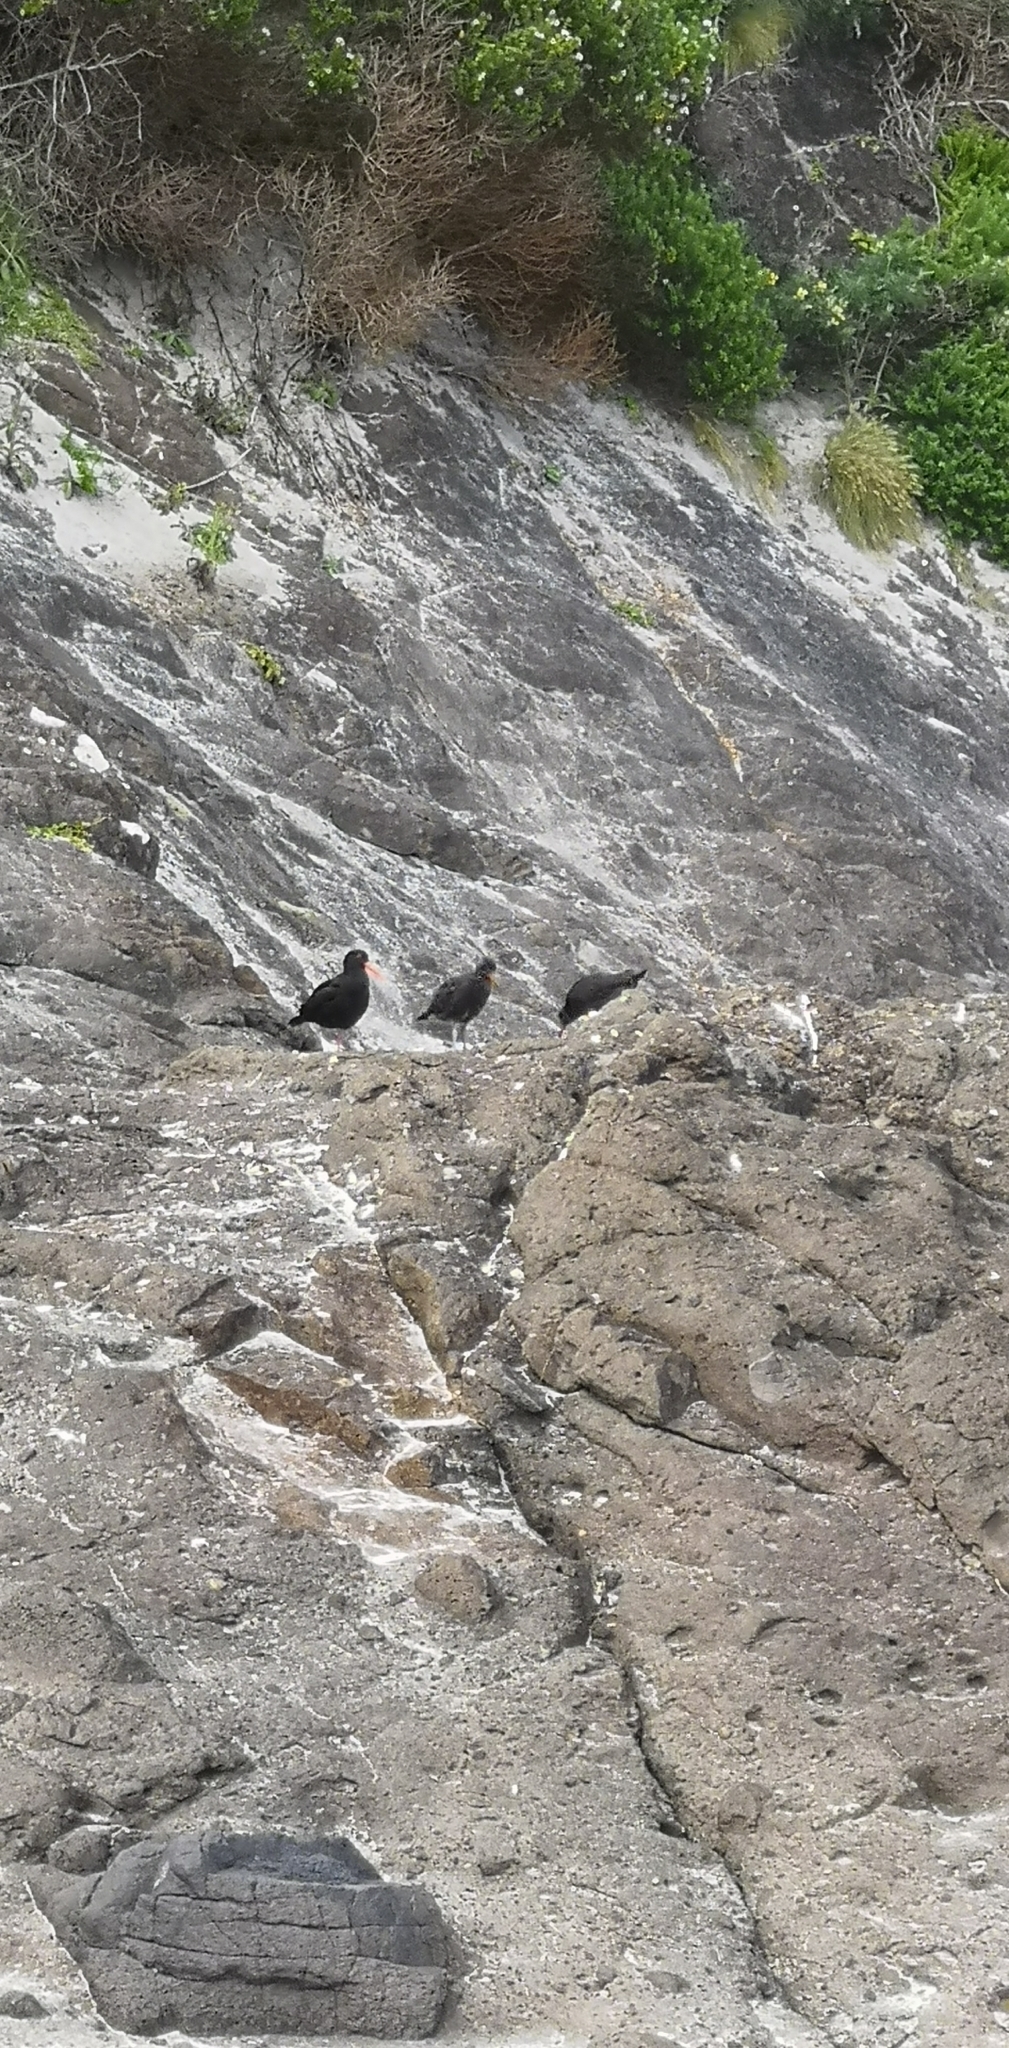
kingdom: Animalia
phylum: Chordata
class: Aves
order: Charadriiformes
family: Haematopodidae
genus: Haematopus
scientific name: Haematopus unicolor
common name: Variable oystercatcher
